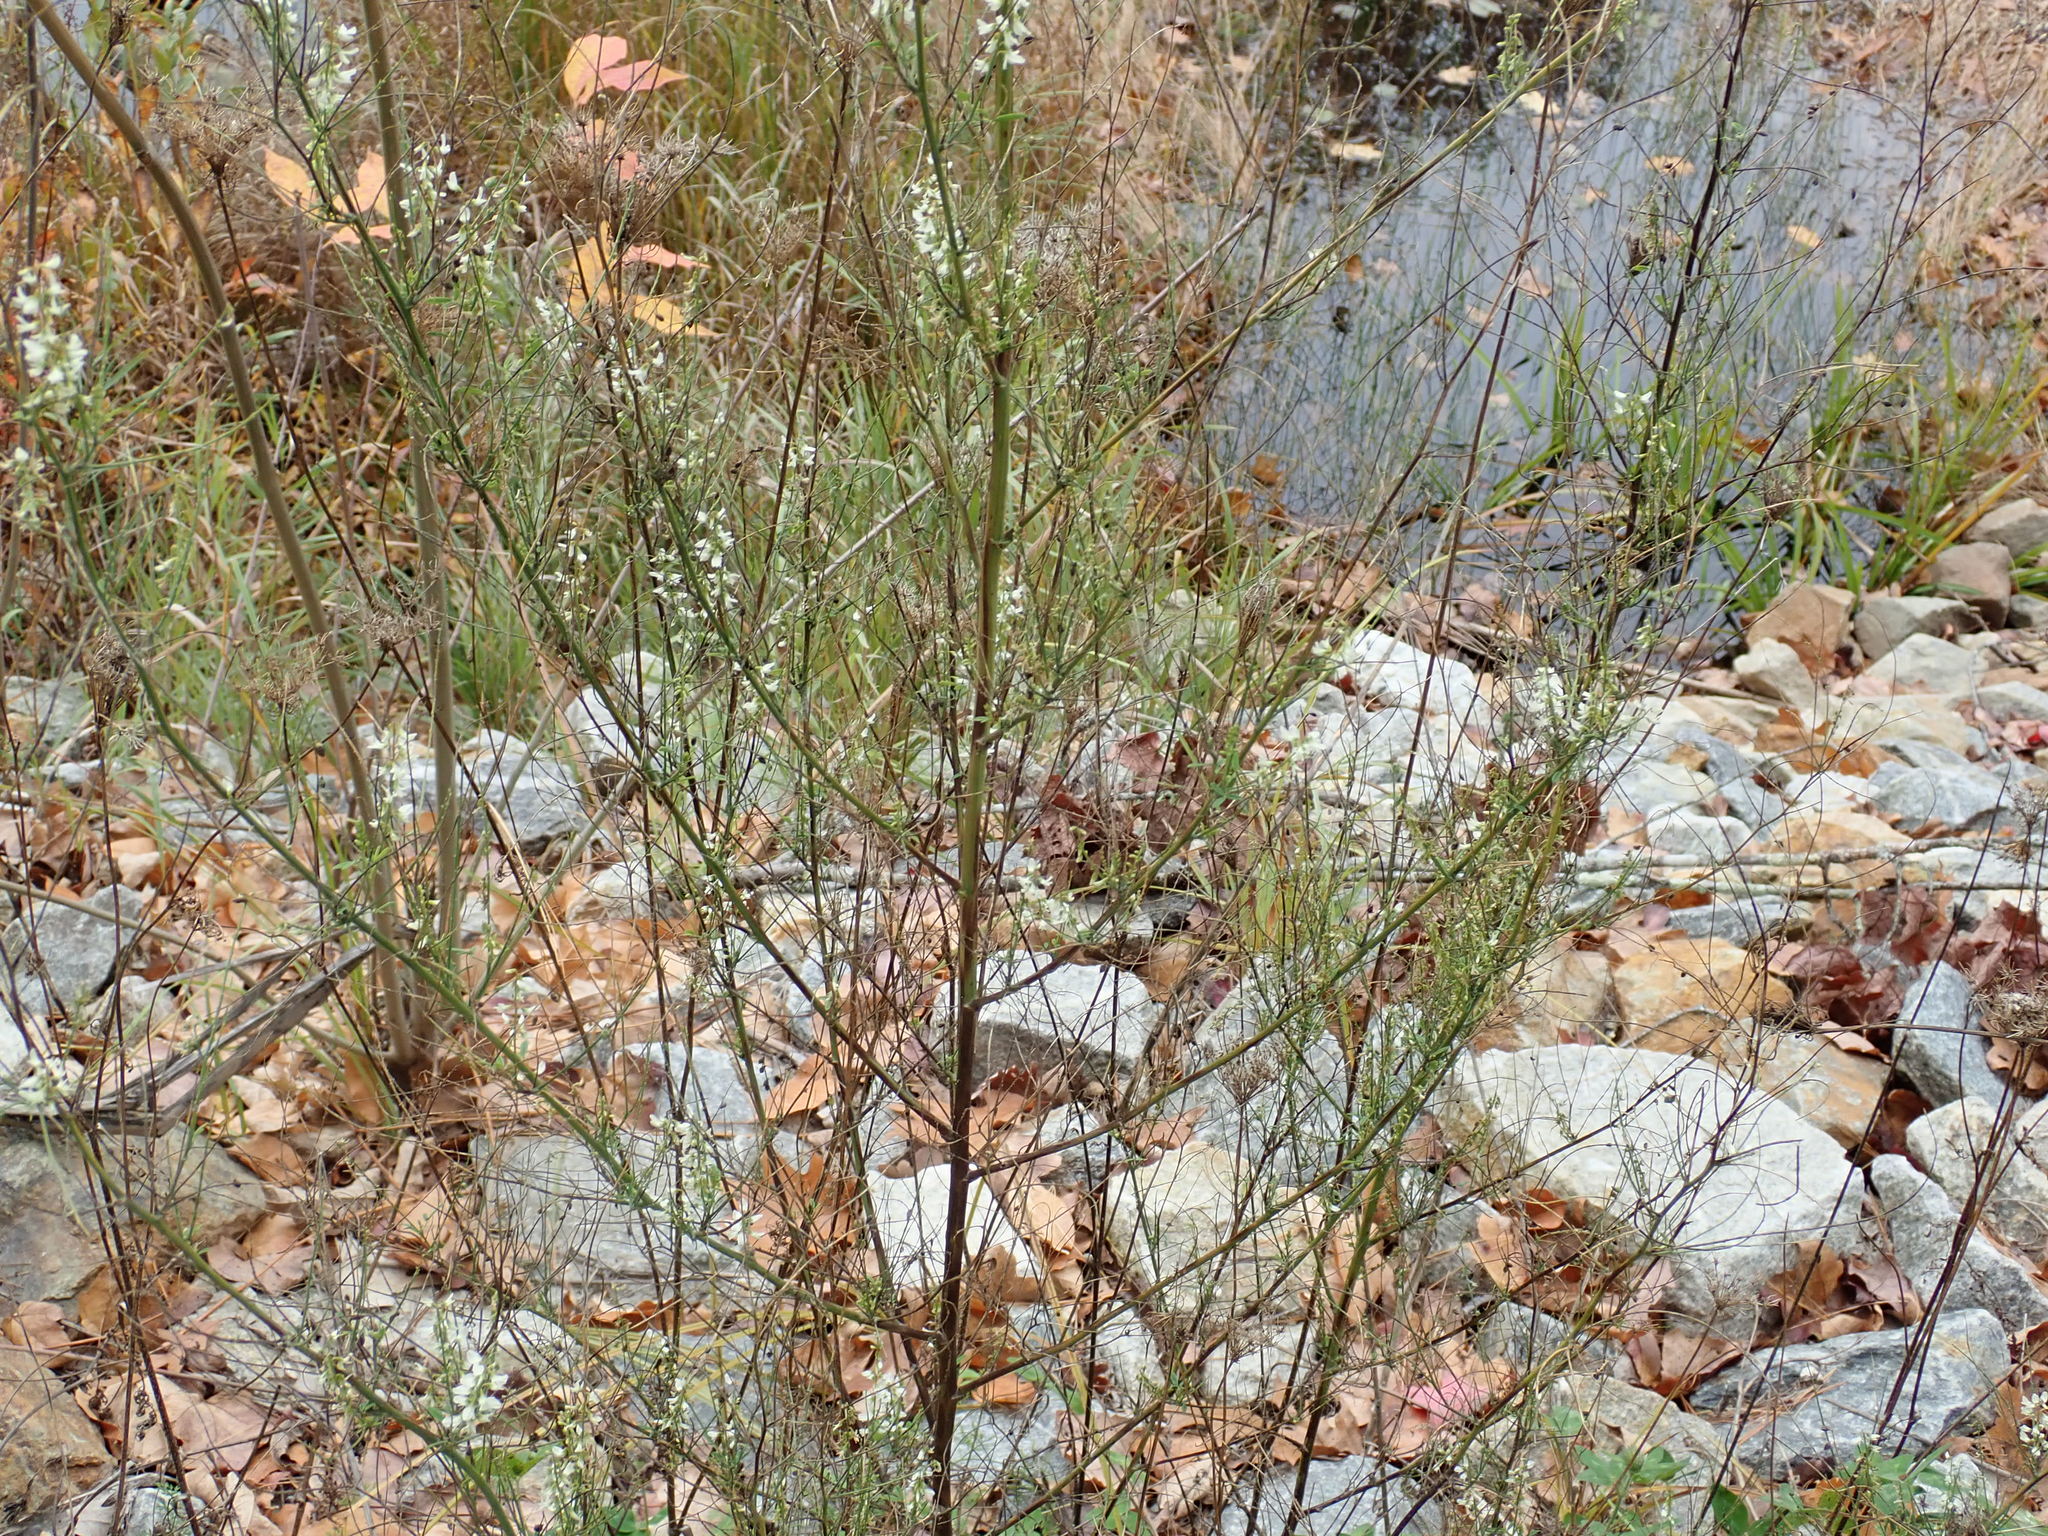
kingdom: Plantae
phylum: Tracheophyta
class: Magnoliopsida
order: Fabales
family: Fabaceae
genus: Melilotus
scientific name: Melilotus albus
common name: White melilot
